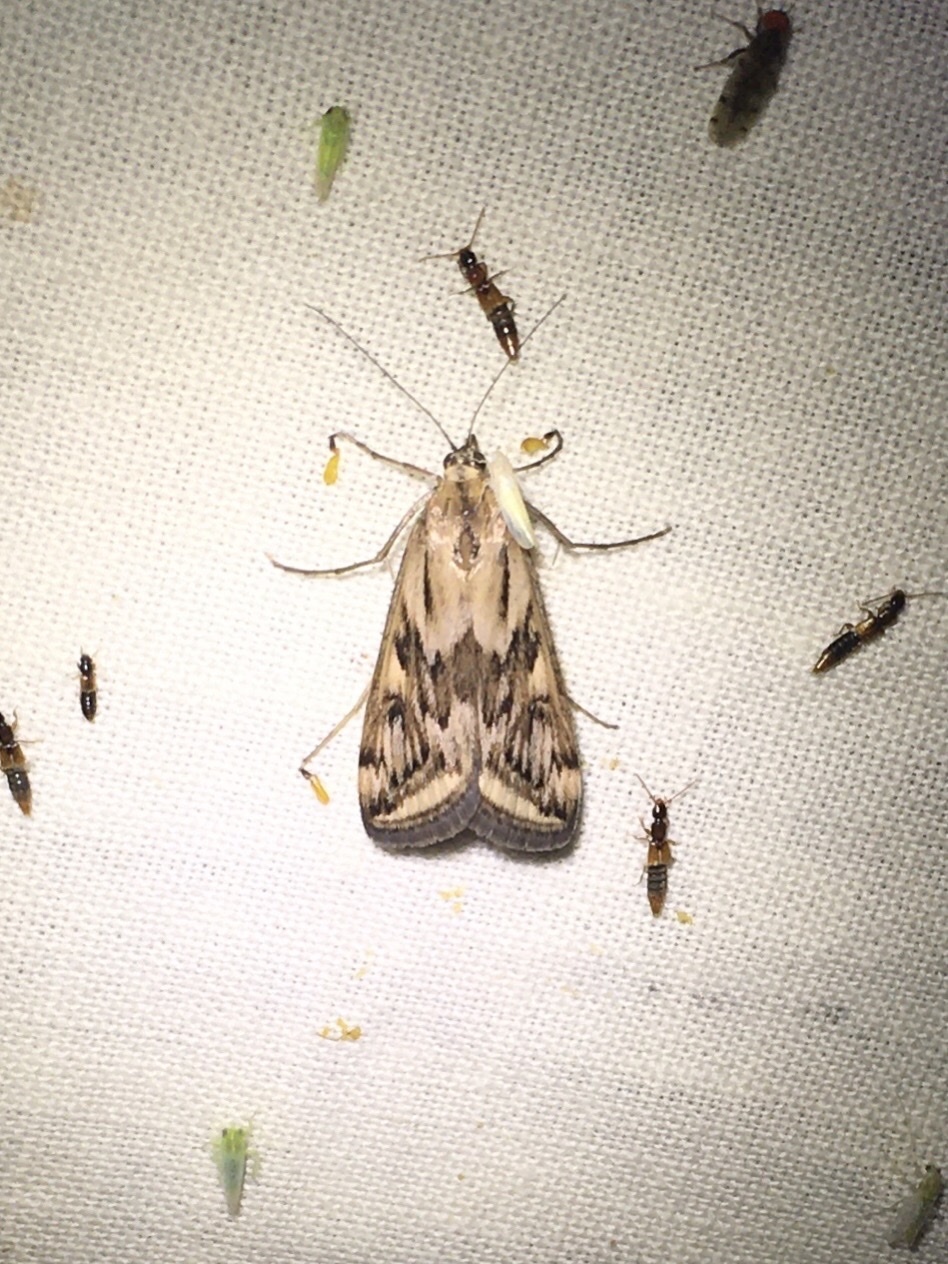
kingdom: Animalia
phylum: Arthropoda
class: Insecta
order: Lepidoptera
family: Crambidae
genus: Loxostege
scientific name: Loxostege cereralis
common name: Alfalfa webworm moth
